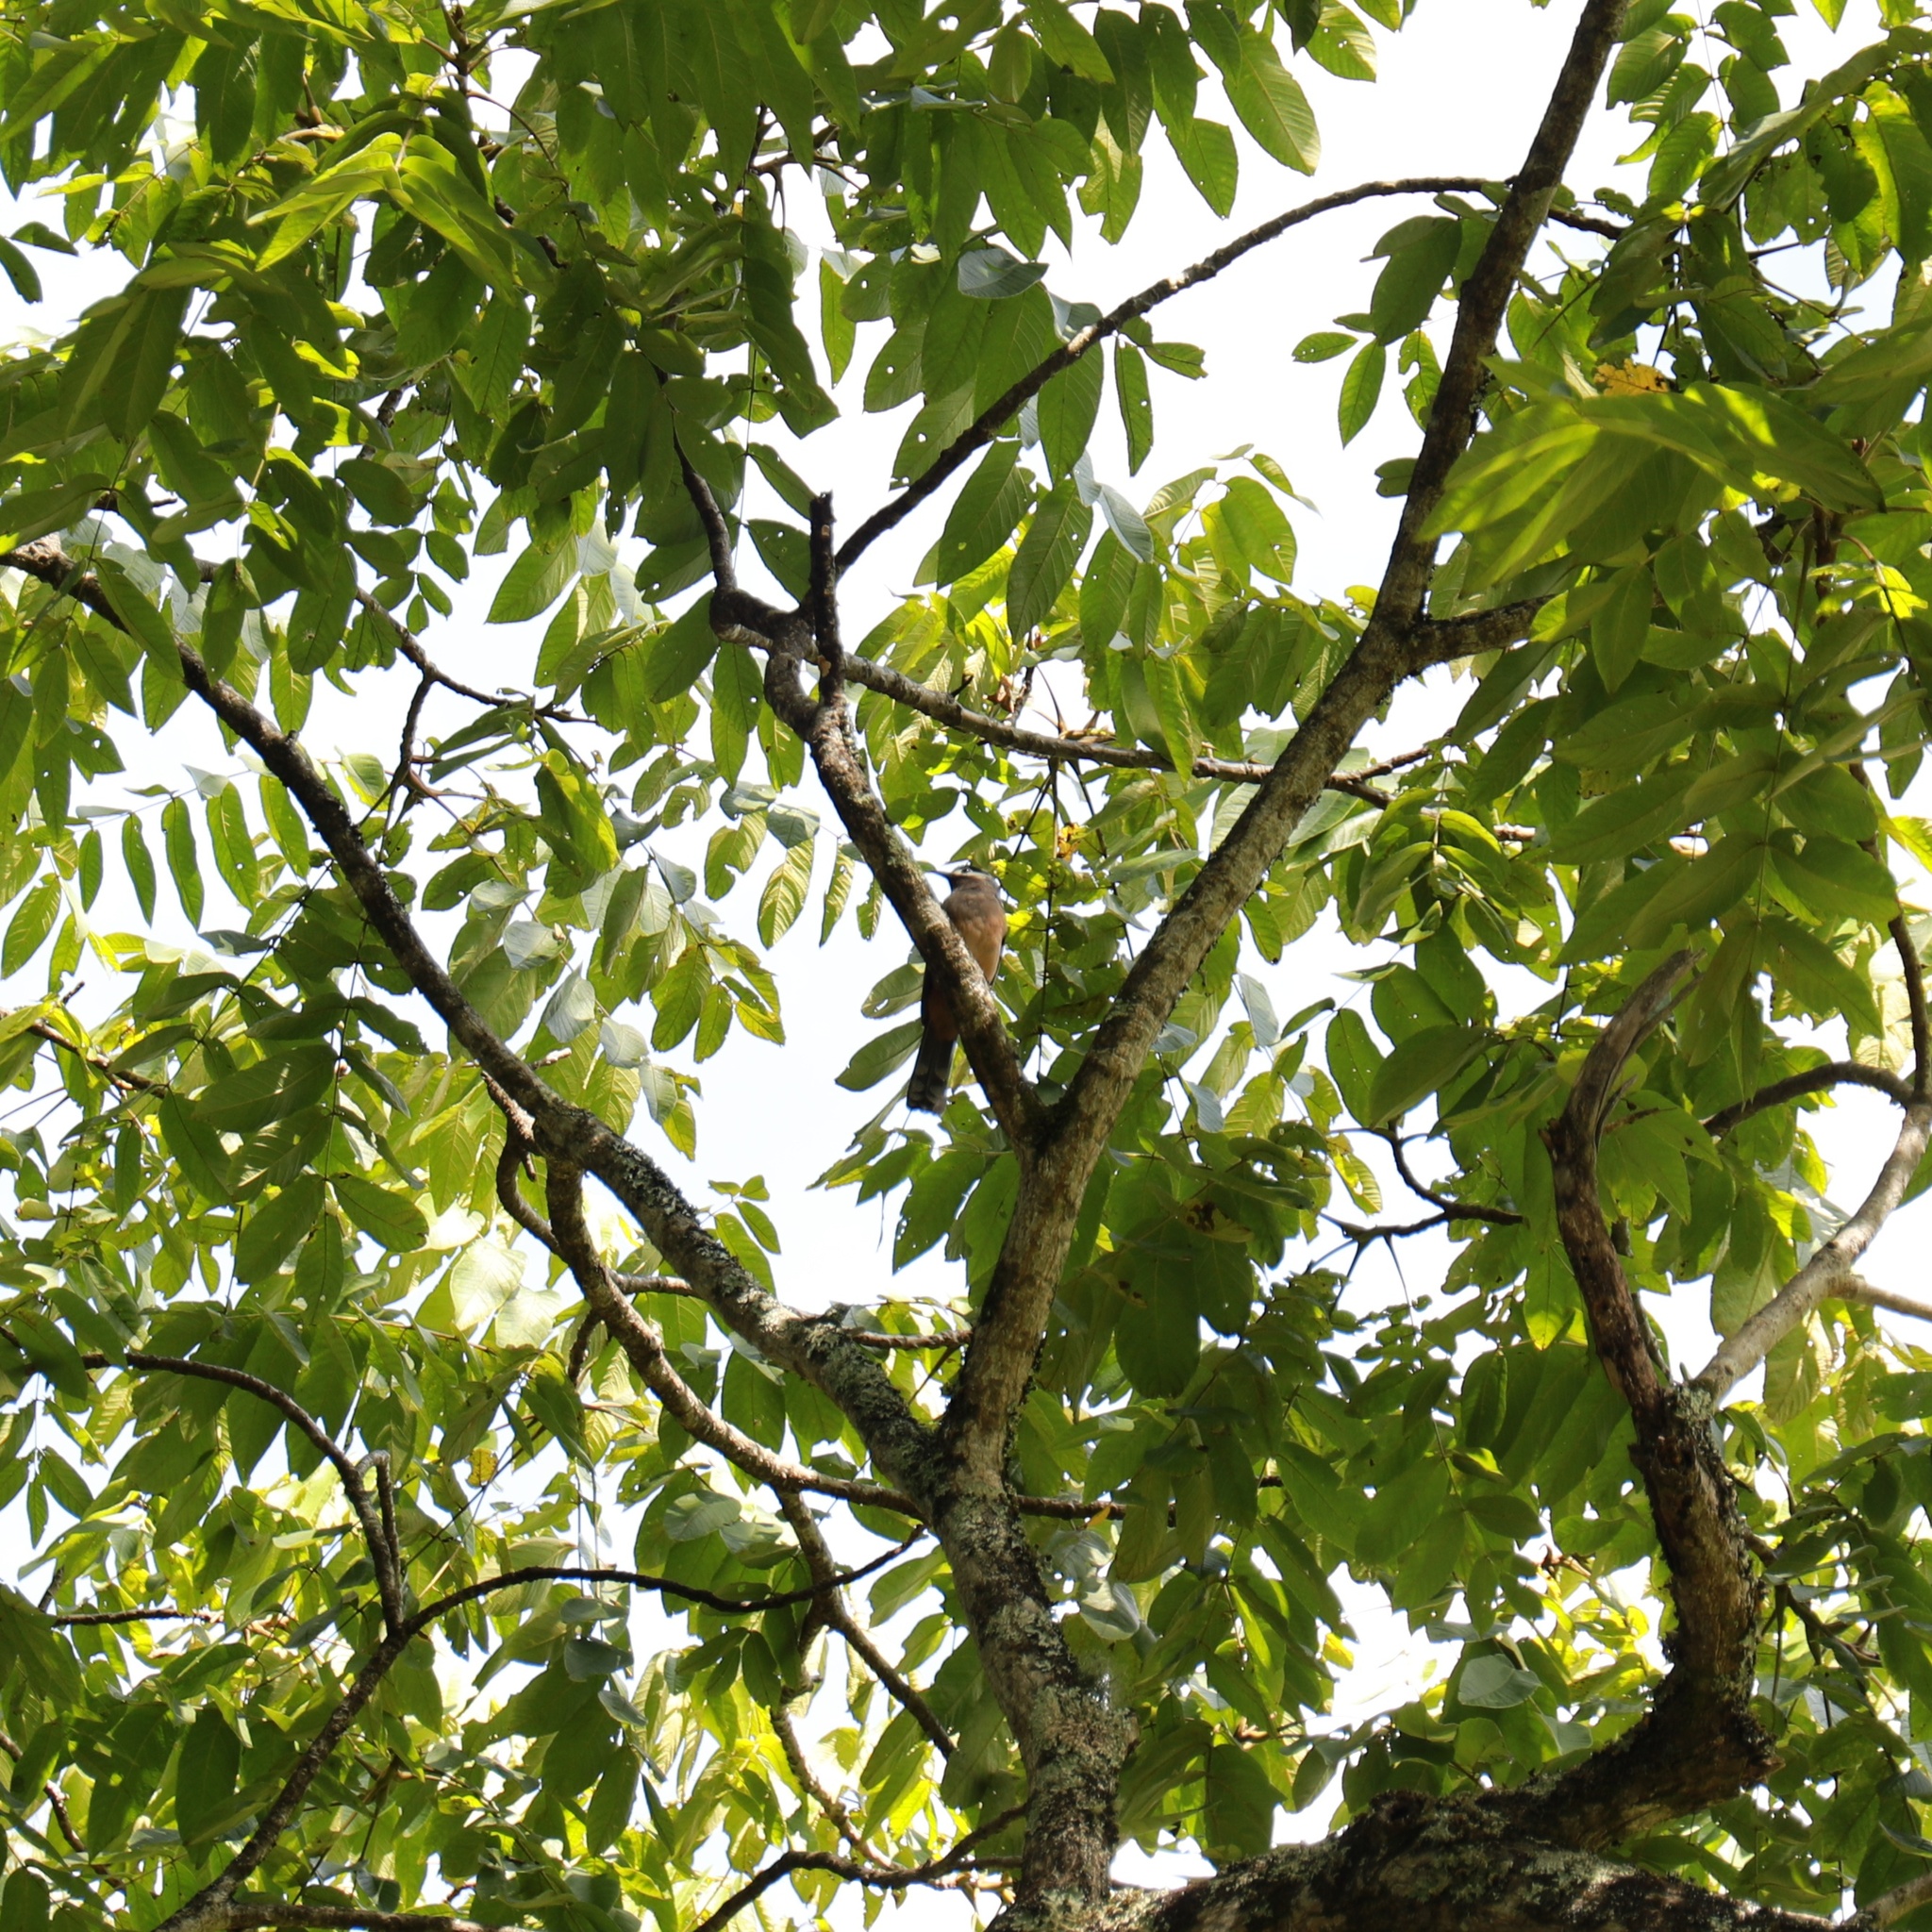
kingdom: Animalia
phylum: Chordata
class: Aves
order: Passeriformes
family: Leiothrichidae
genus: Heterophasia
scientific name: Heterophasia auricularis
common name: White-eared sibia
